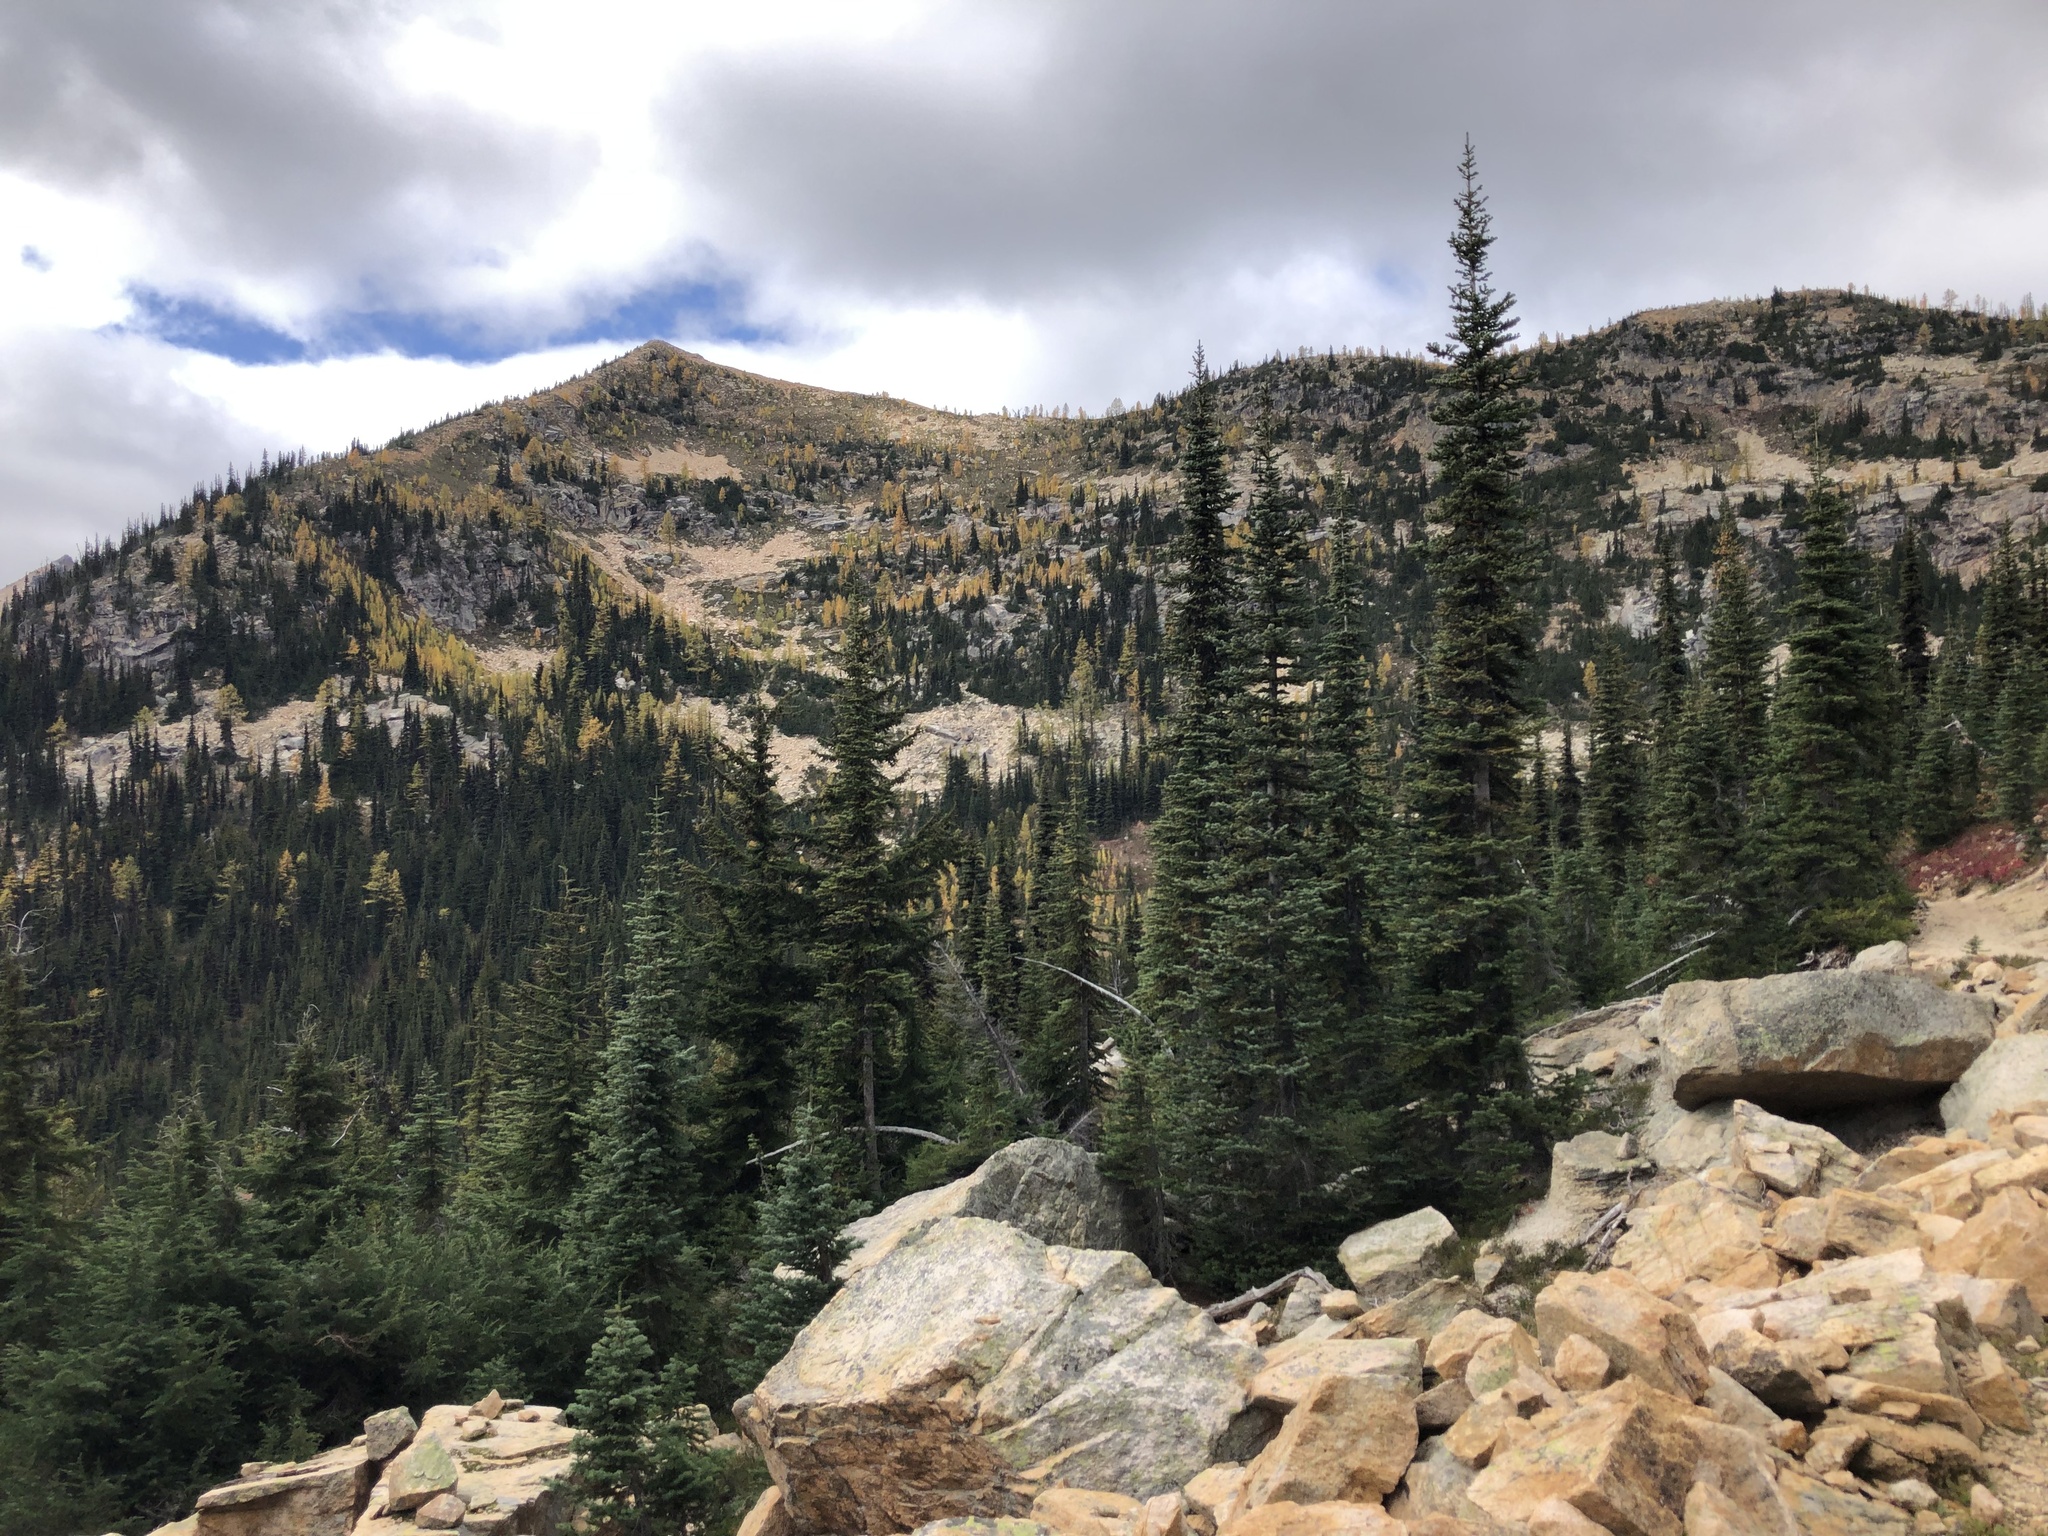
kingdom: Plantae
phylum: Tracheophyta
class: Pinopsida
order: Pinales
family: Pinaceae
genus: Abies
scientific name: Abies lasiocarpa
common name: Subalpine fir
